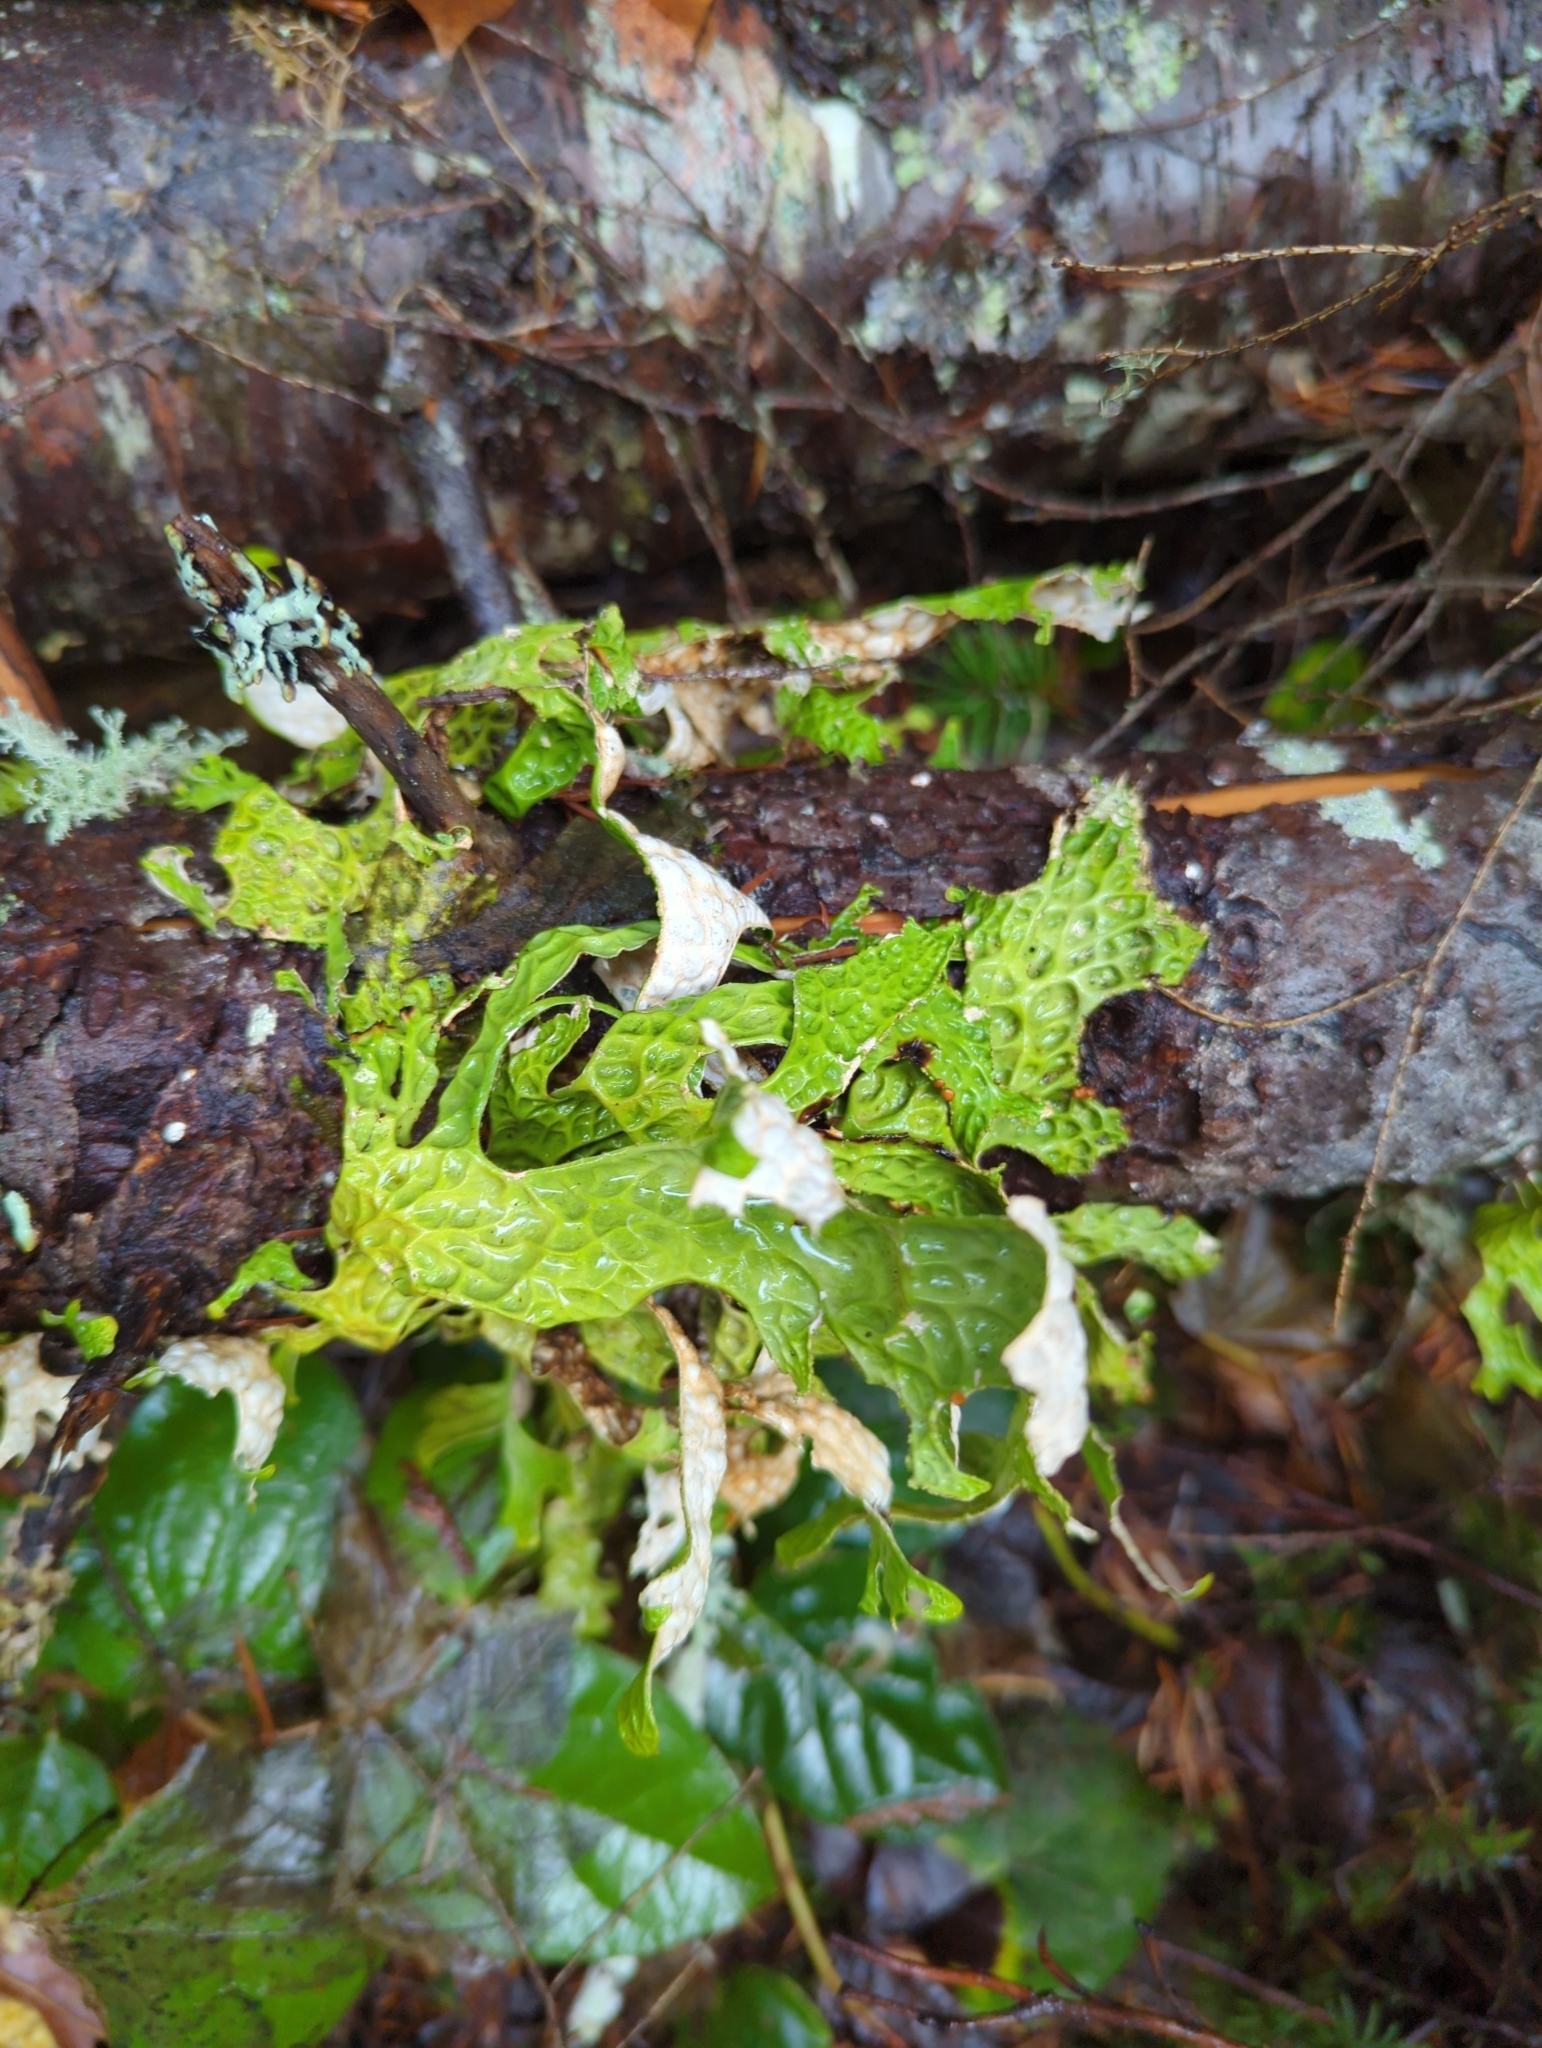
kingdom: Fungi
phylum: Ascomycota
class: Lecanoromycetes
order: Peltigerales
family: Lobariaceae
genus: Lobaria
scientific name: Lobaria pulmonaria
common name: Lungwort
